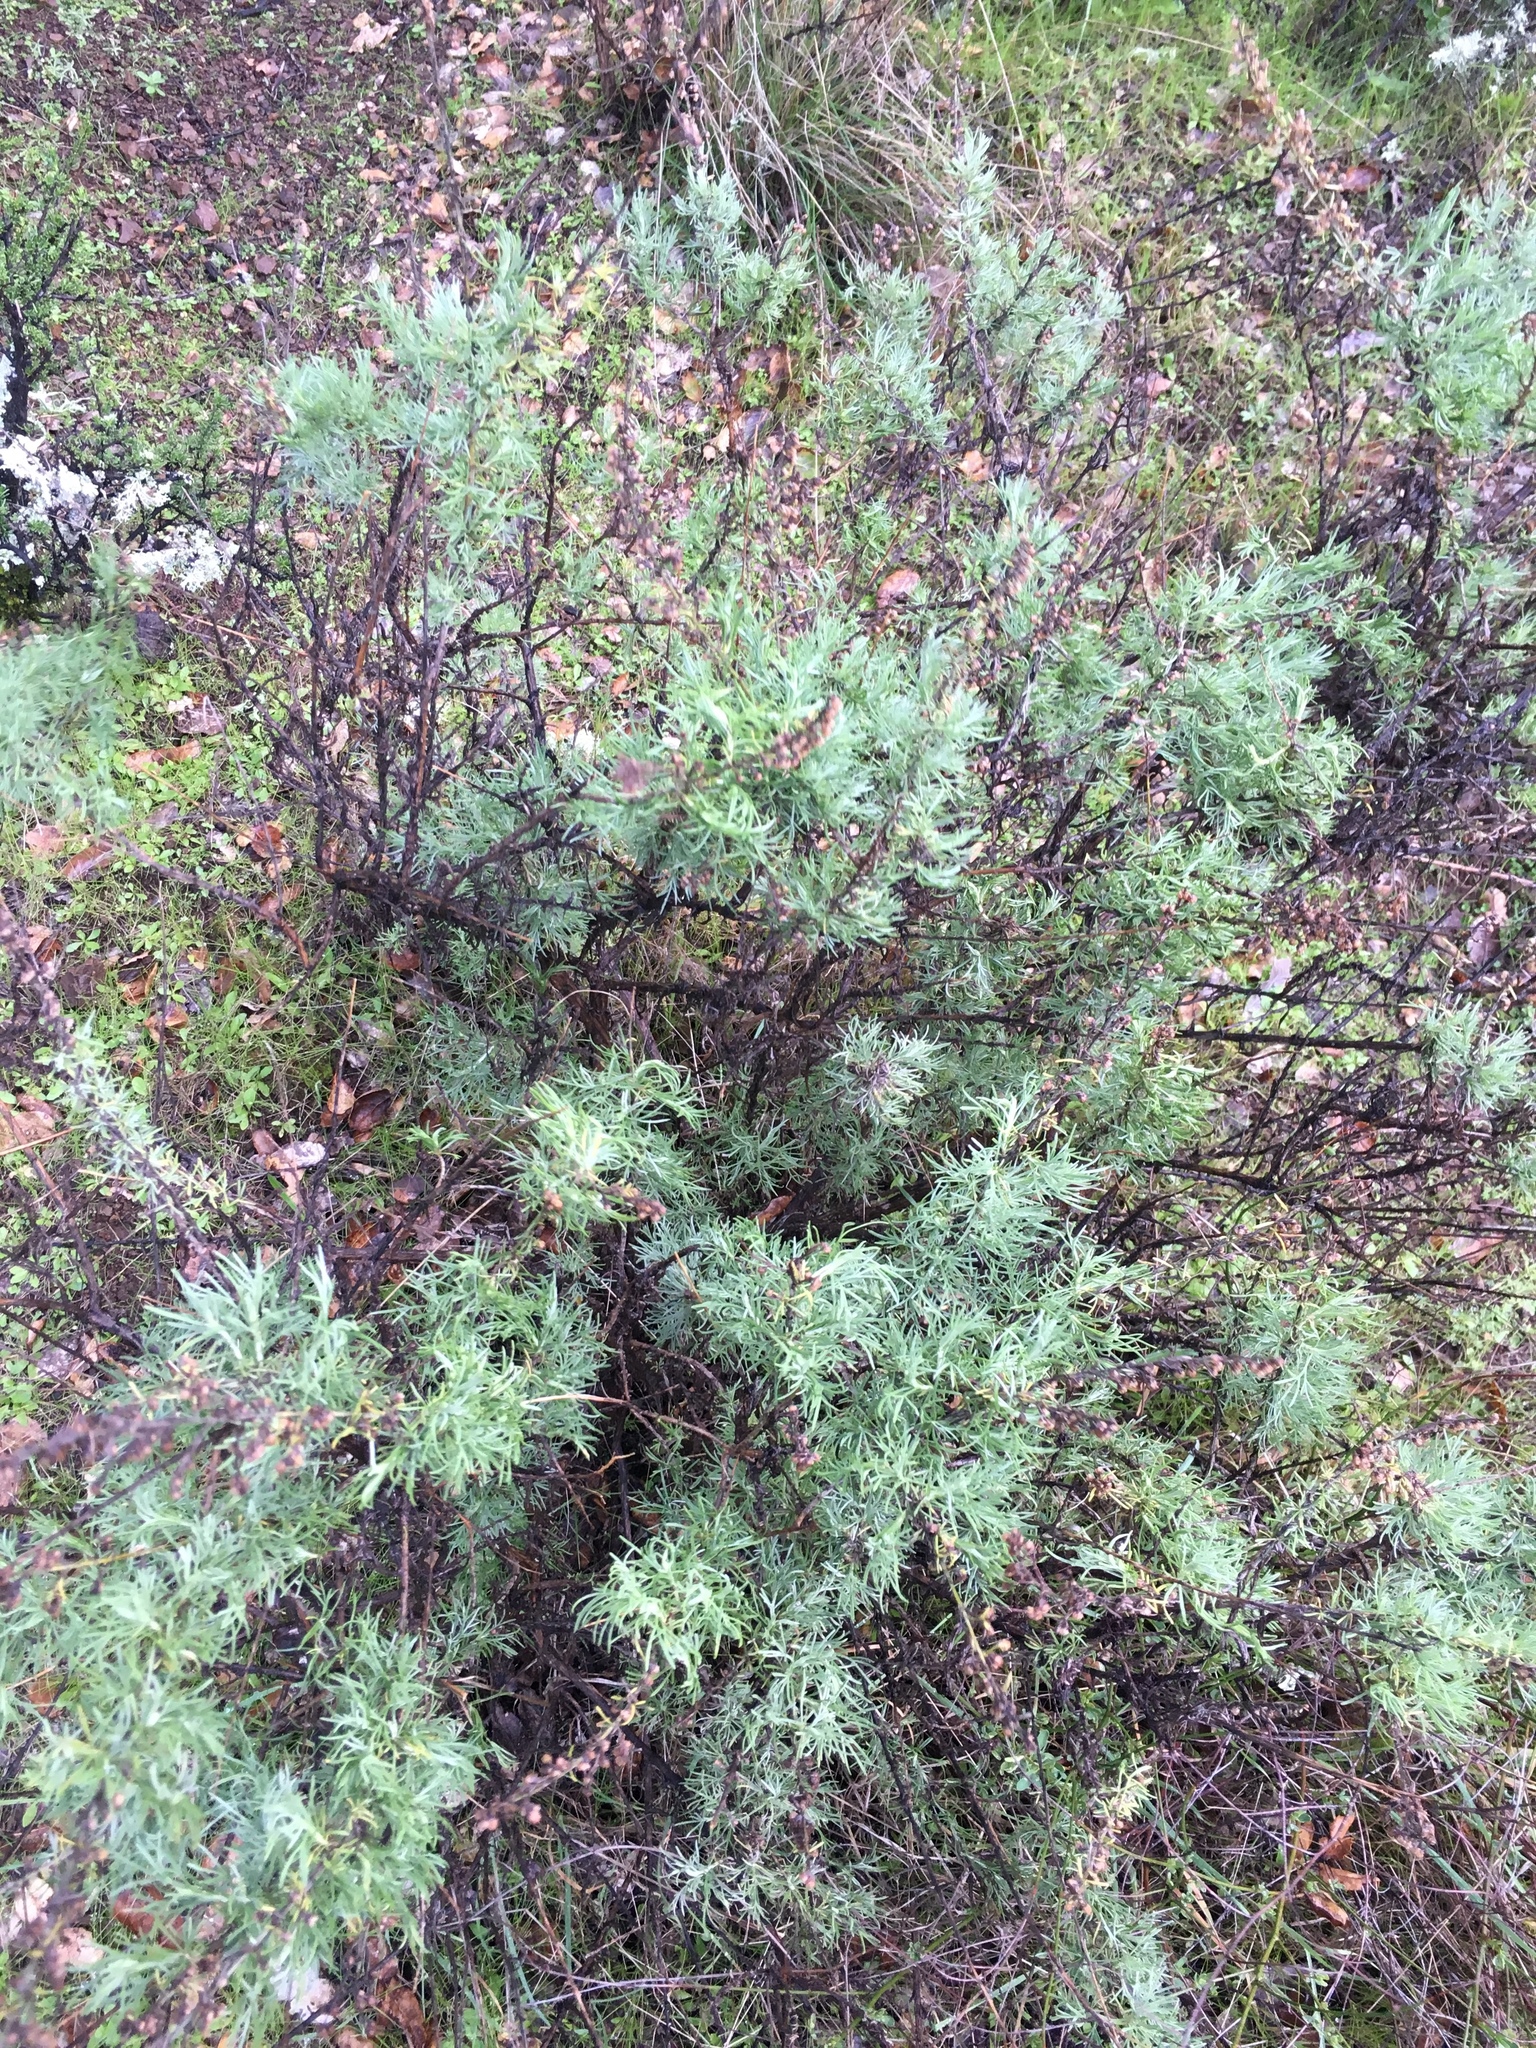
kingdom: Plantae
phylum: Tracheophyta
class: Magnoliopsida
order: Asterales
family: Asteraceae
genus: Artemisia
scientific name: Artemisia californica
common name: California sagebrush
